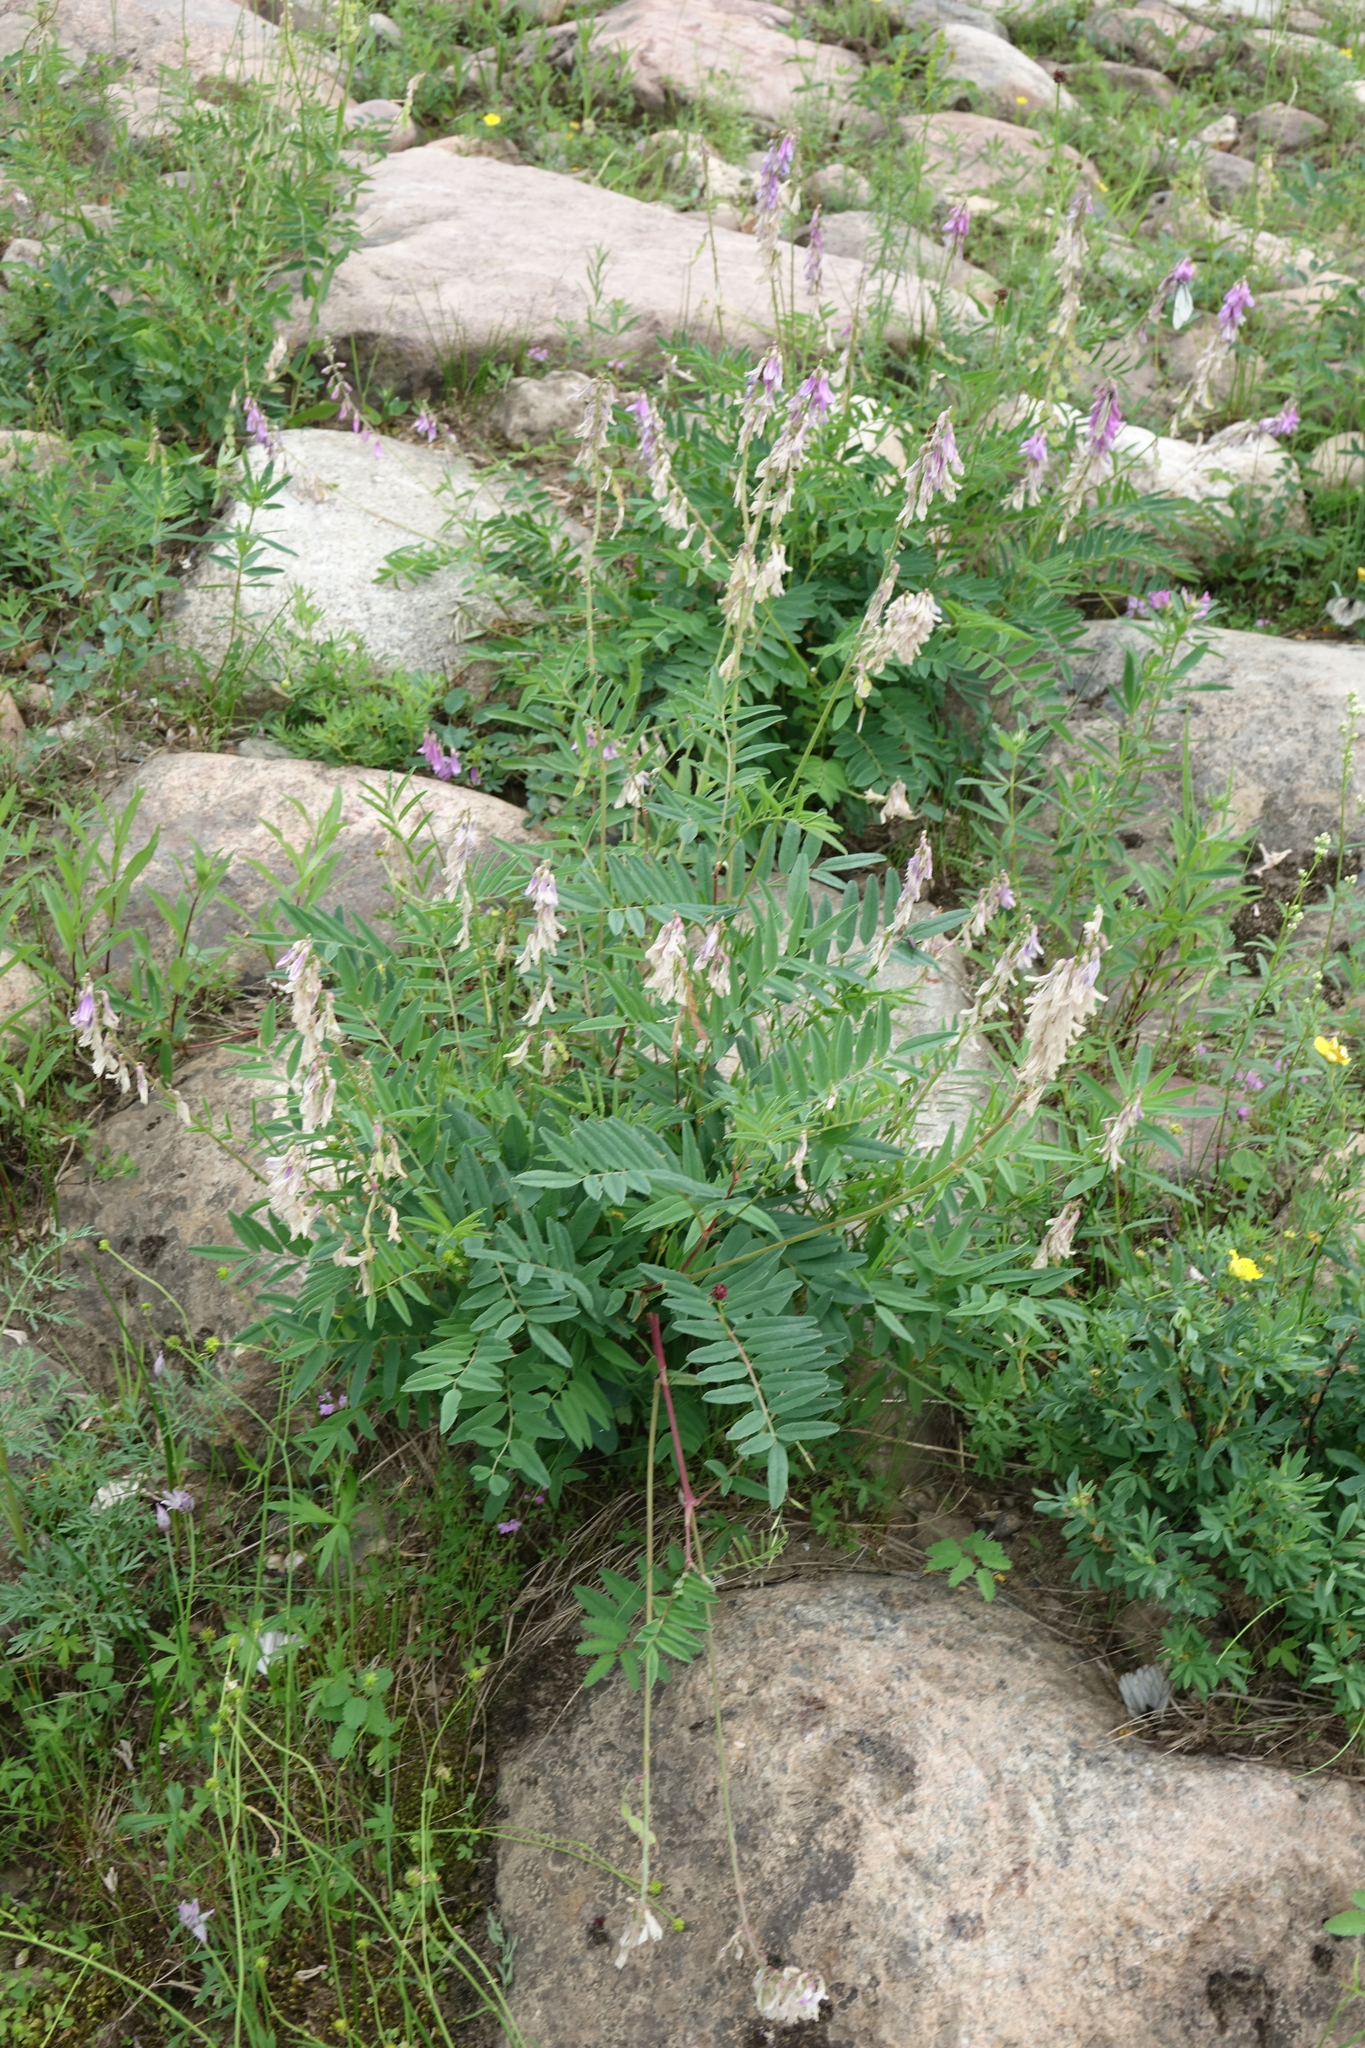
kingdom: Plantae
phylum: Tracheophyta
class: Magnoliopsida
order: Fabales
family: Fabaceae
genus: Hedysarum
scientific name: Hedysarum branthii
